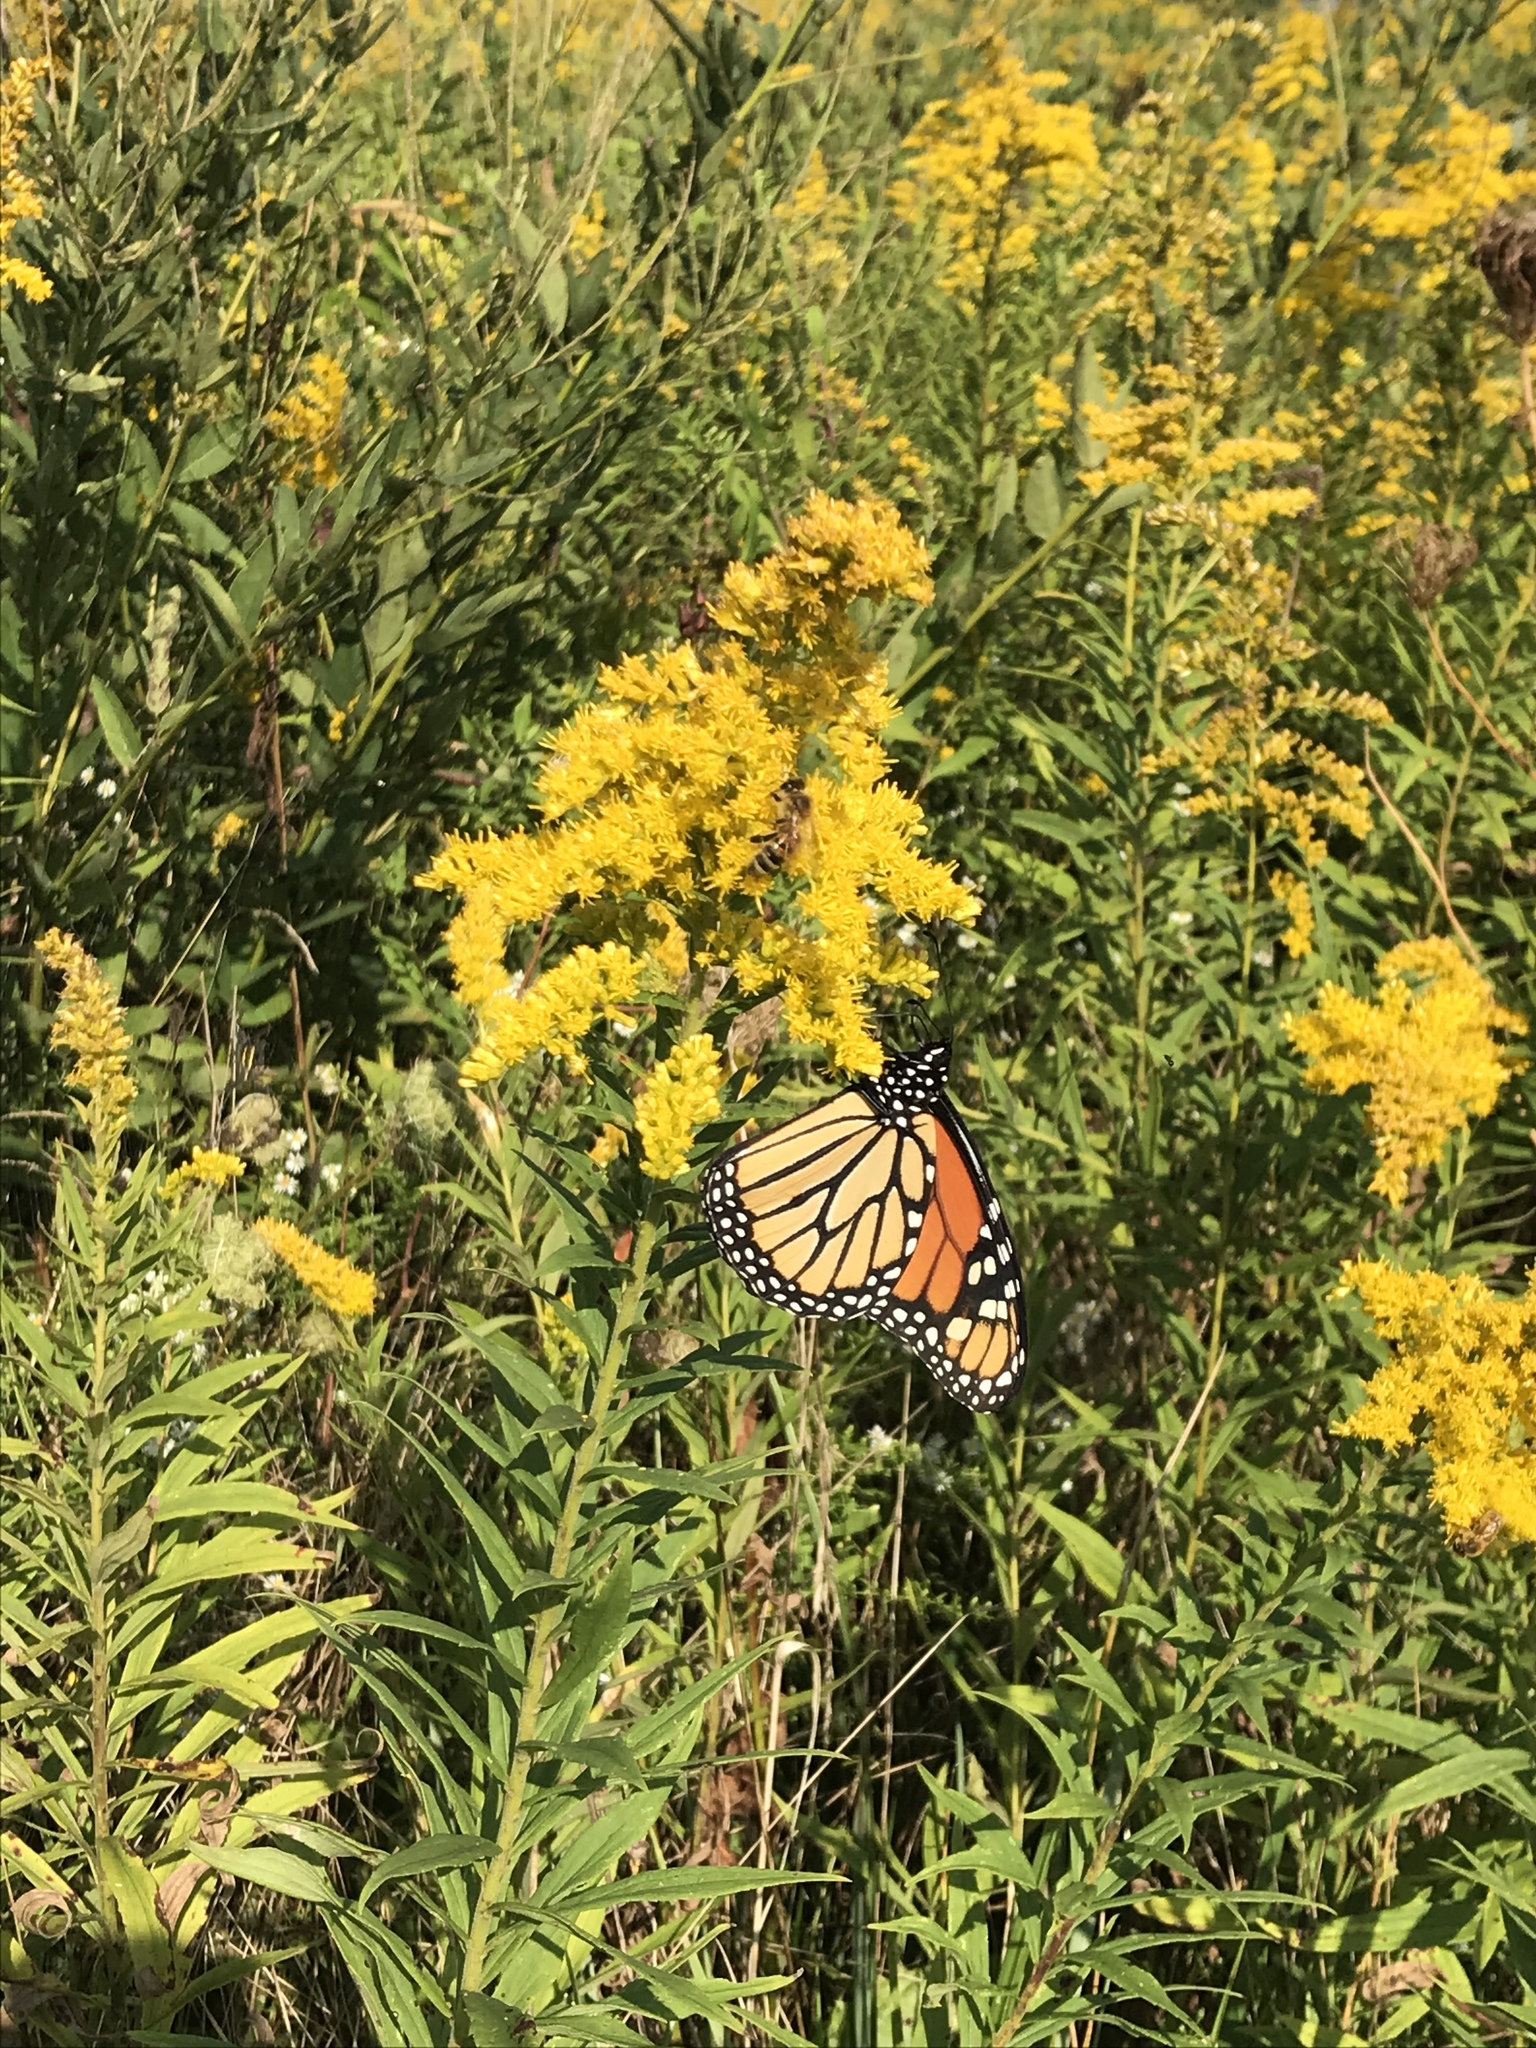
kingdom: Animalia
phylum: Arthropoda
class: Insecta
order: Lepidoptera
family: Nymphalidae
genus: Danaus
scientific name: Danaus plexippus
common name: Monarch
